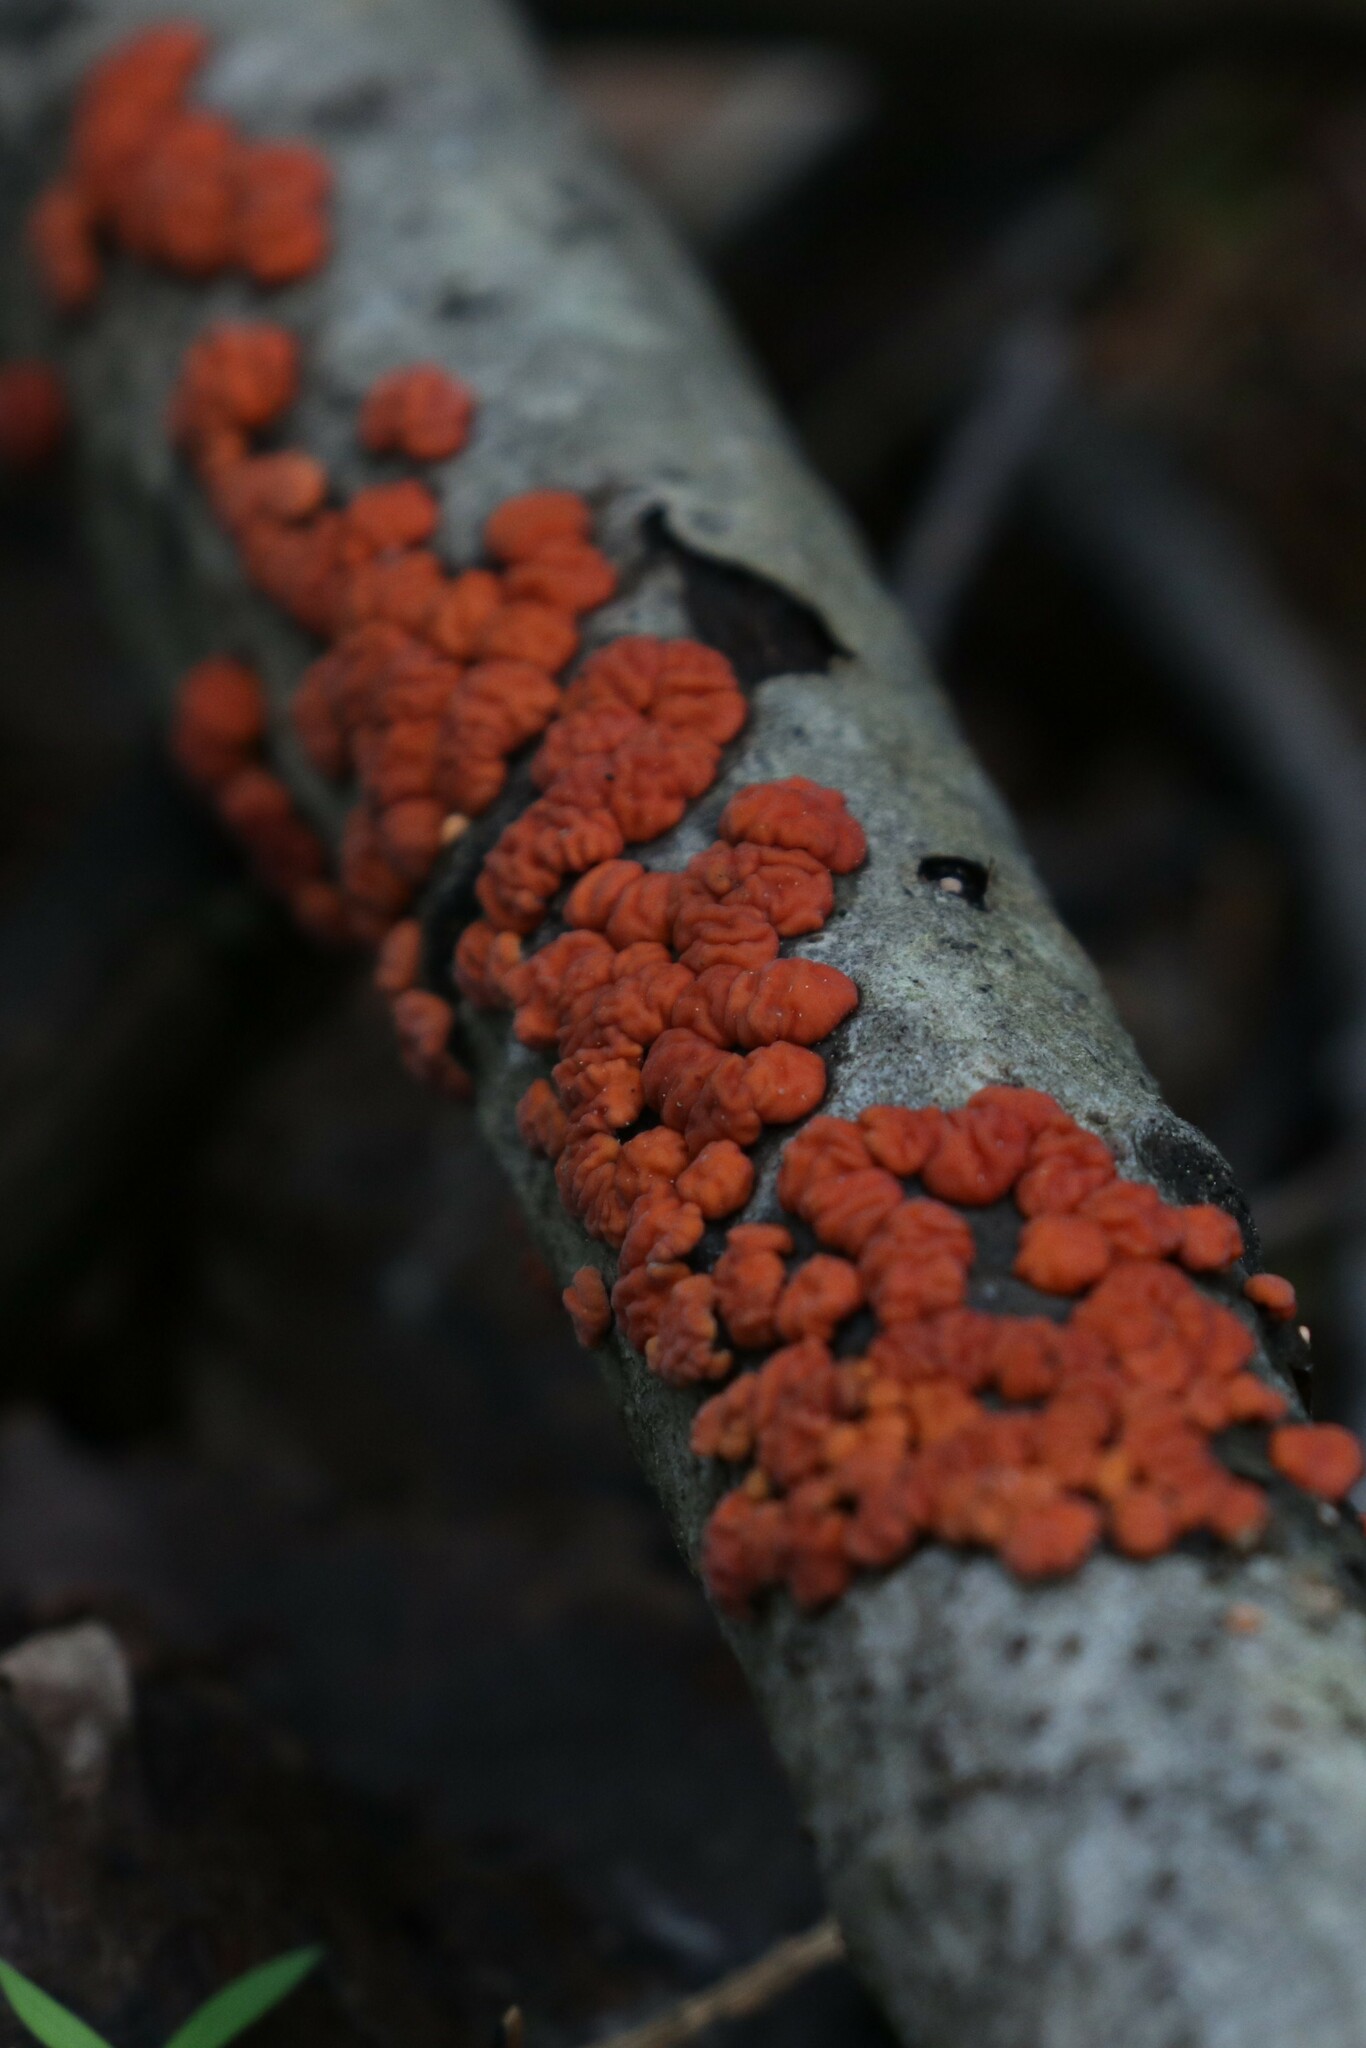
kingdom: Fungi
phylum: Basidiomycota
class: Agaricomycetes
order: Russulales
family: Peniophoraceae
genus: Peniophora
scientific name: Peniophora rufa
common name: Red tree brain fungus
